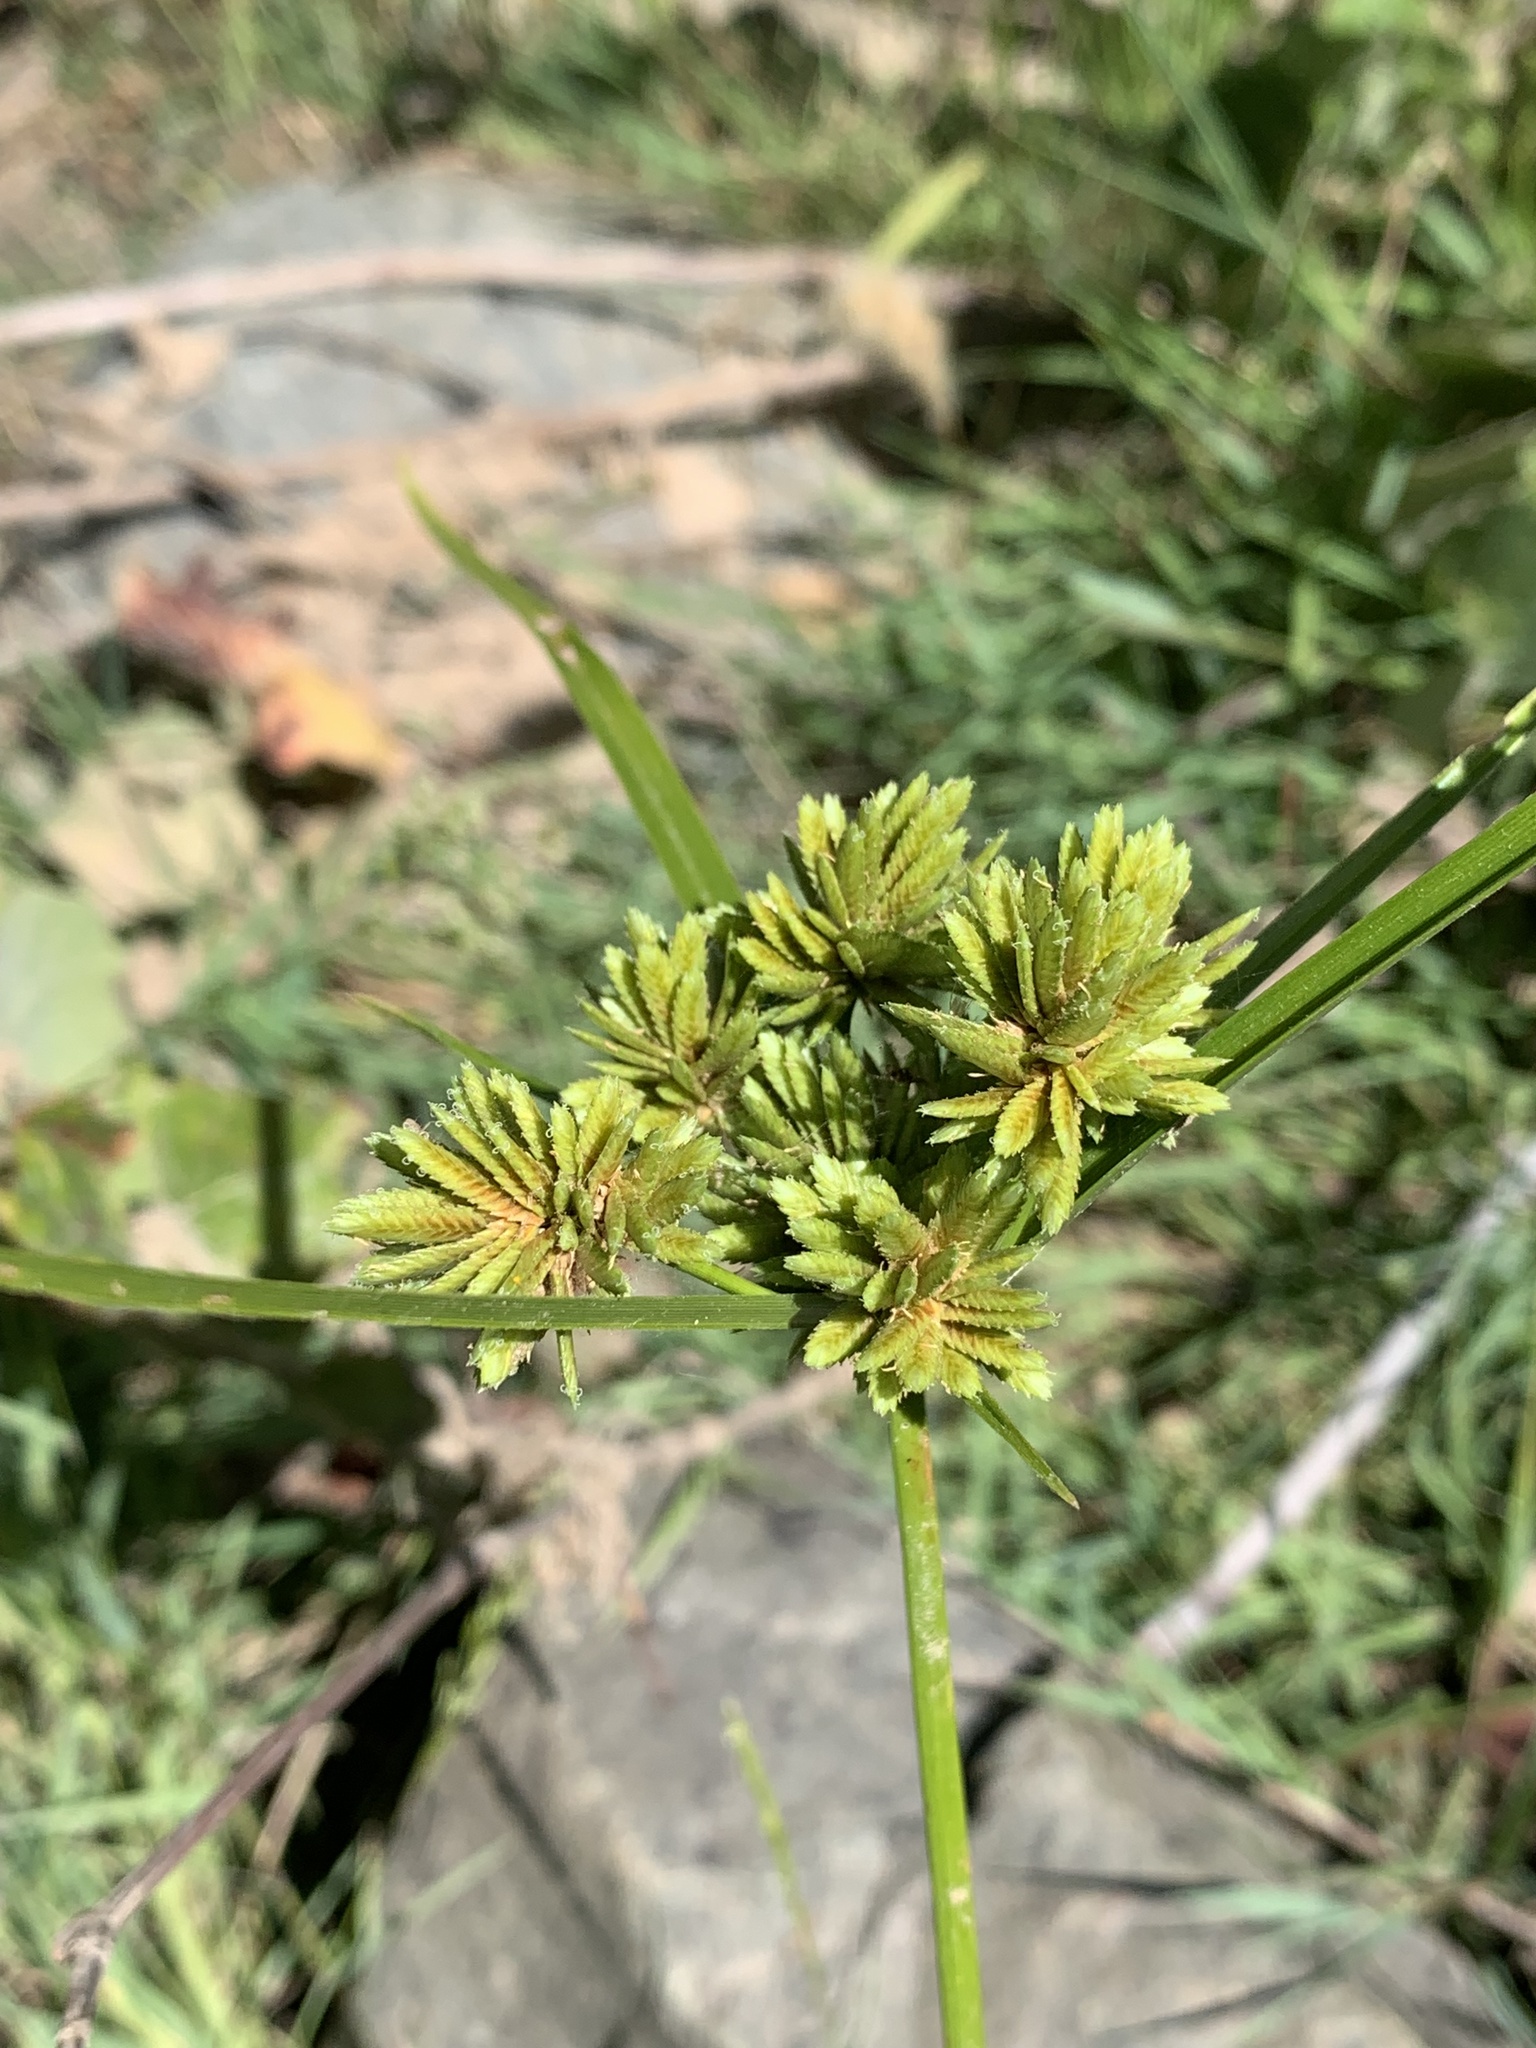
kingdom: Plantae
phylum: Tracheophyta
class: Liliopsida
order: Poales
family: Cyperaceae
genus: Cyperus
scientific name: Cyperus eragrostis
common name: Tall flatsedge
